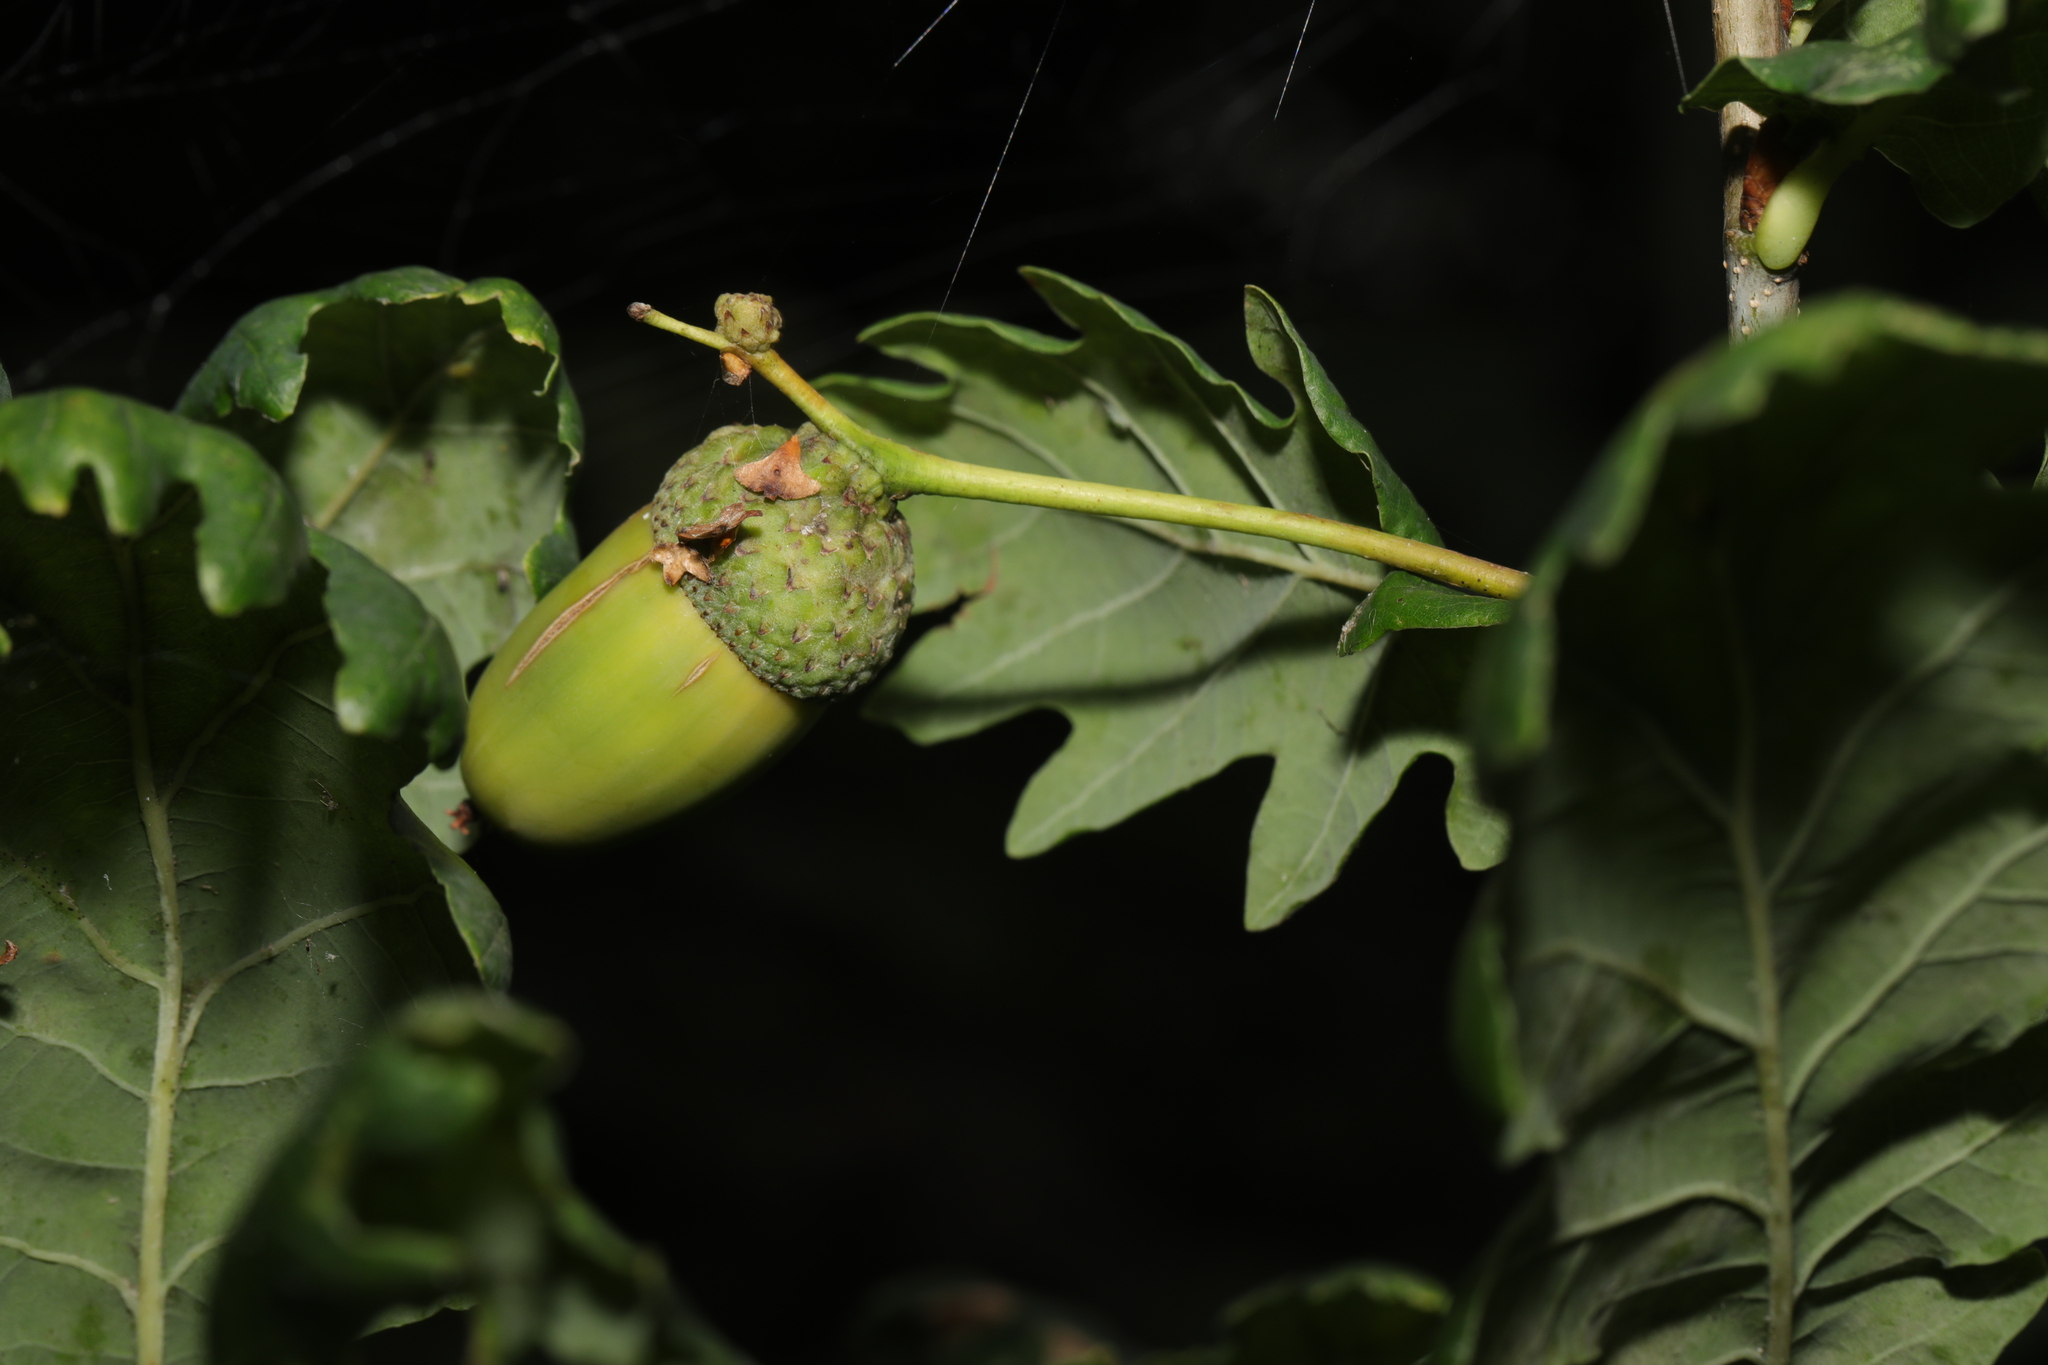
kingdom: Plantae
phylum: Tracheophyta
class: Magnoliopsida
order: Fagales
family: Fagaceae
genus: Quercus
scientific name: Quercus robur
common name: Pedunculate oak
